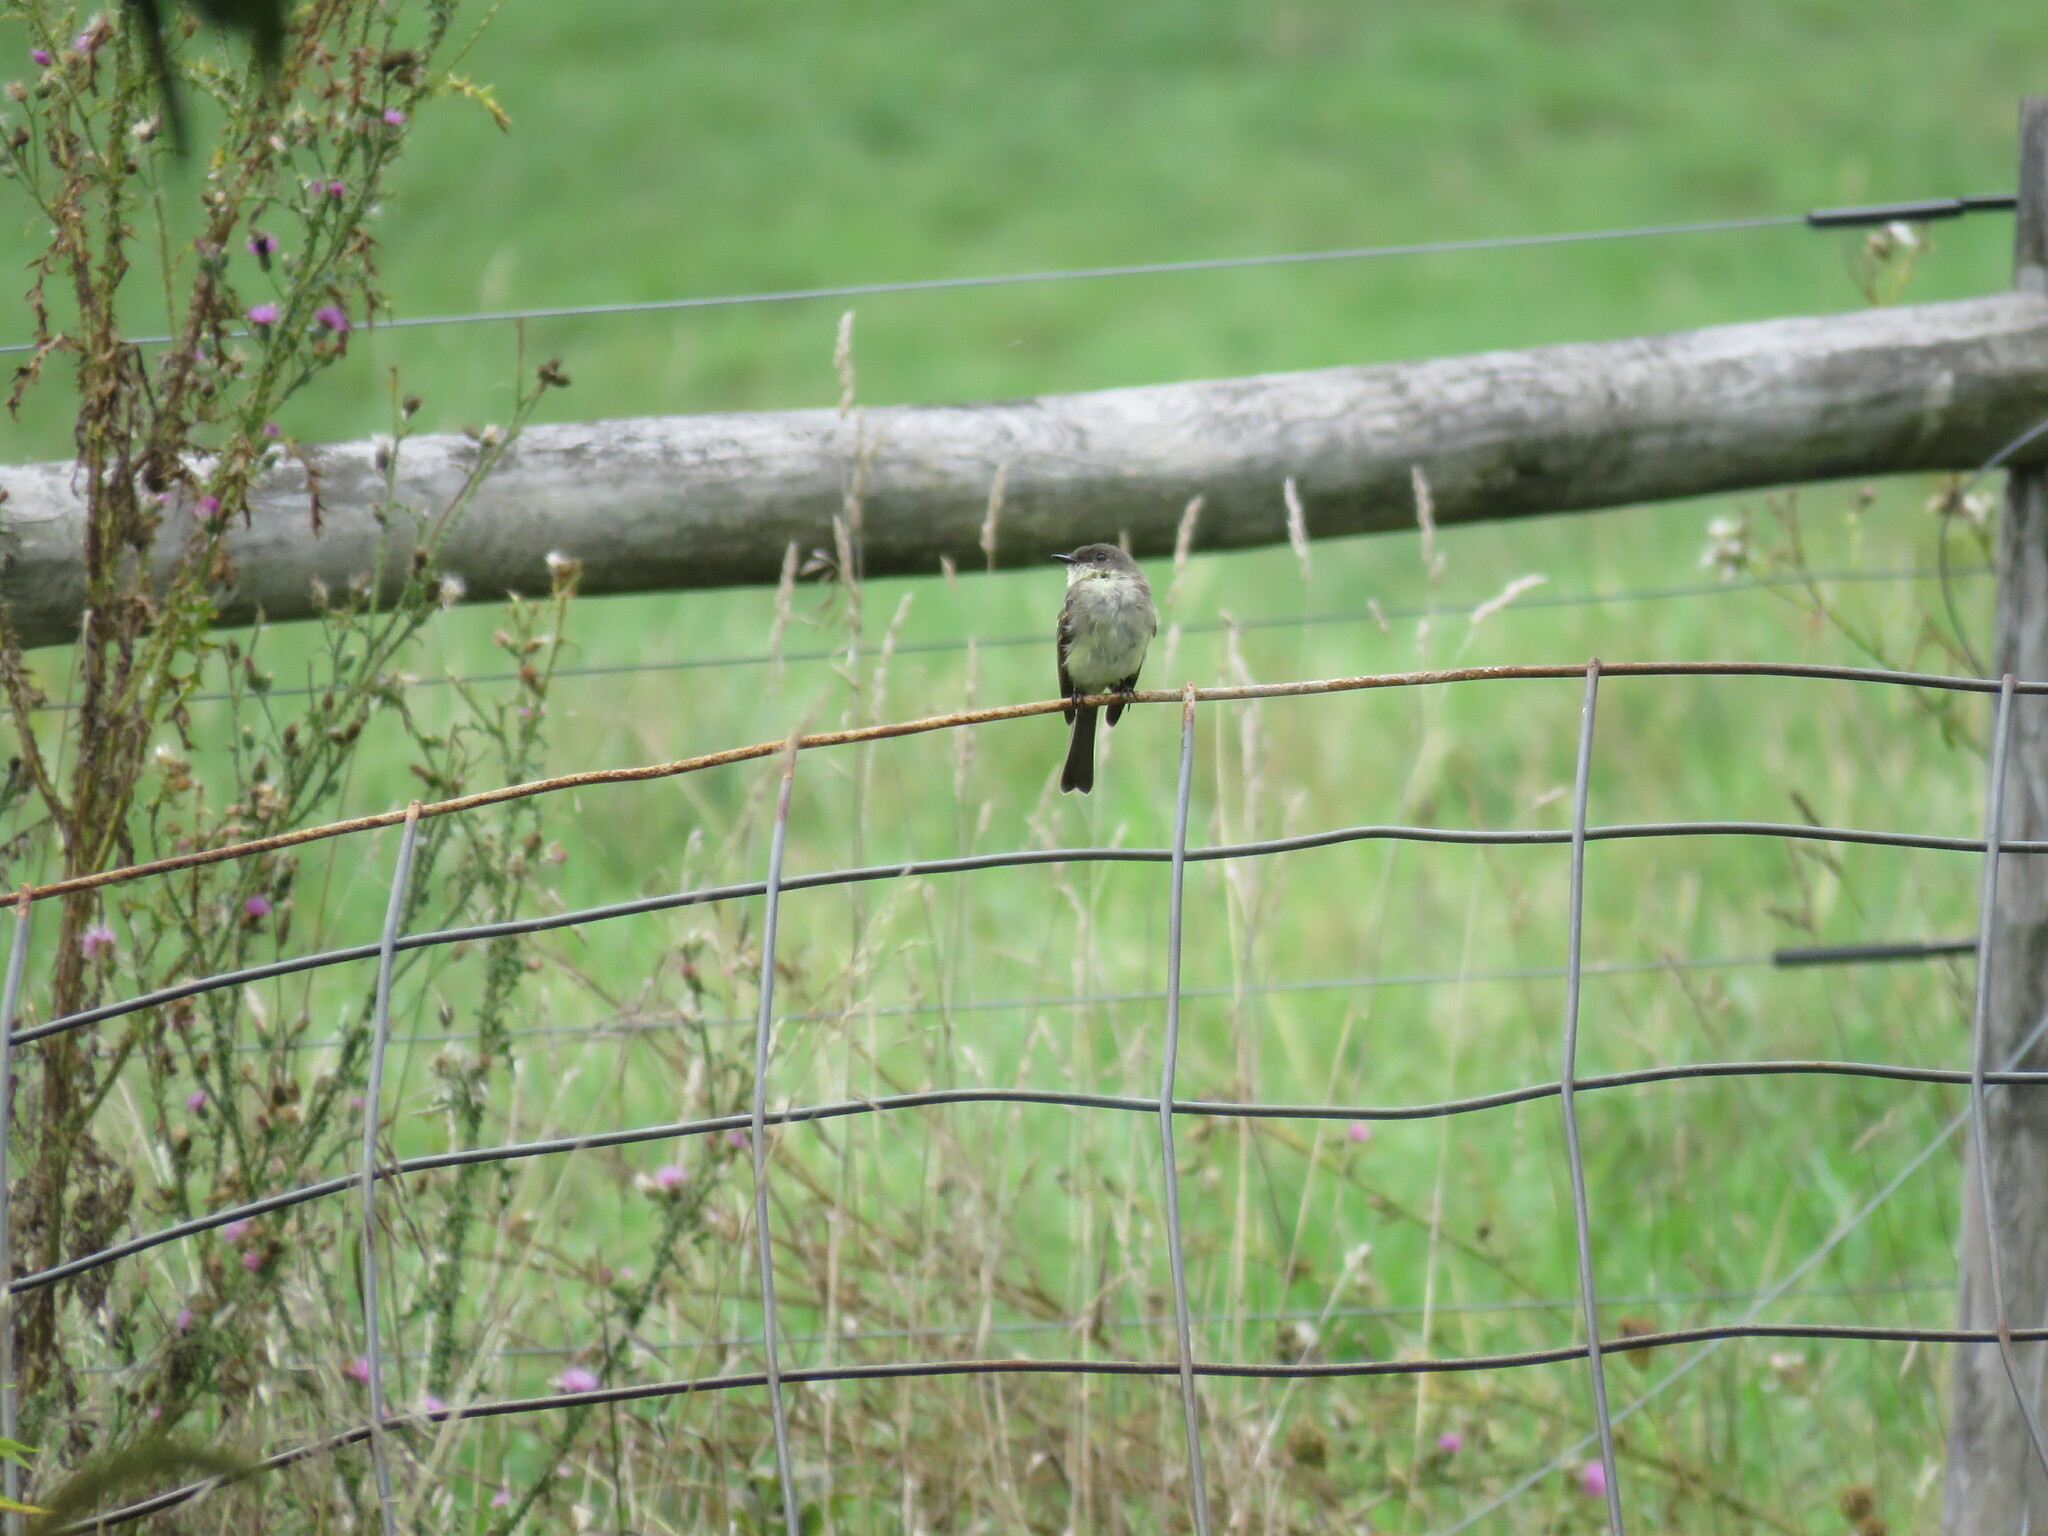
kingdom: Animalia
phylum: Chordata
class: Aves
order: Passeriformes
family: Tyrannidae
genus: Sayornis
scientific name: Sayornis phoebe
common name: Eastern phoebe
